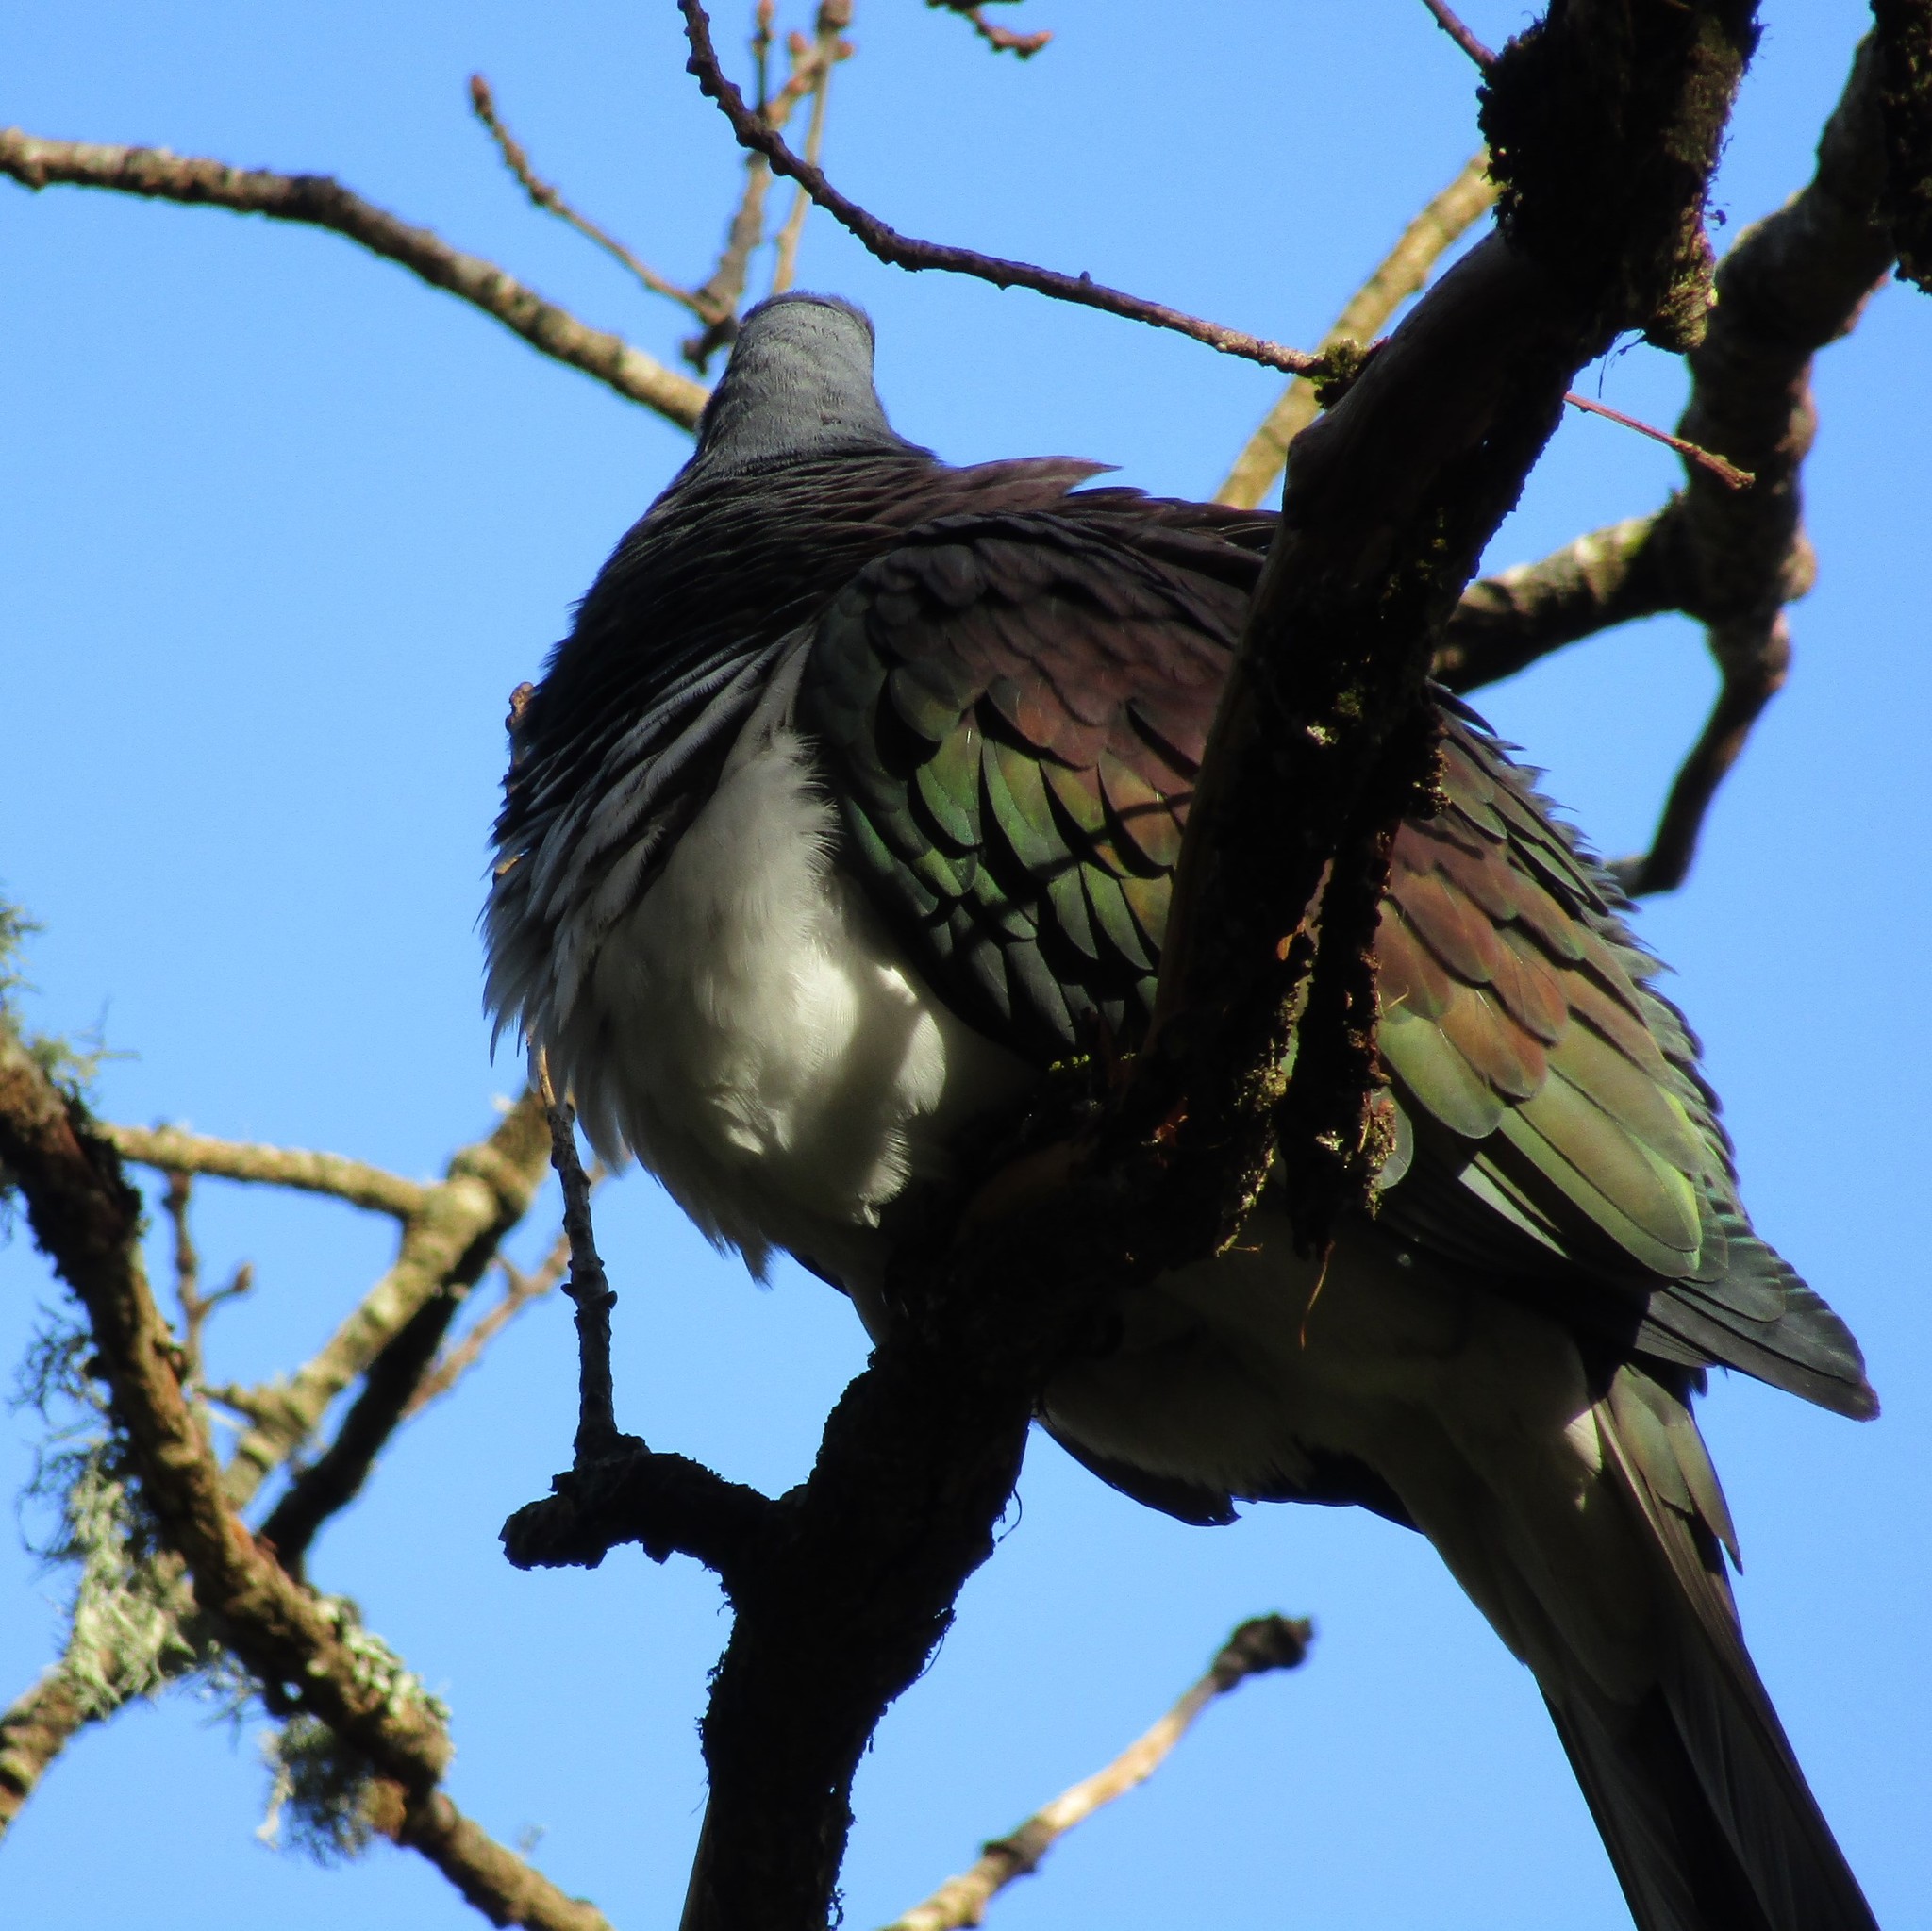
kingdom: Animalia
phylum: Chordata
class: Aves
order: Columbiformes
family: Columbidae
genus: Hemiphaga
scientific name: Hemiphaga novaeseelandiae
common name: New zealand pigeon
